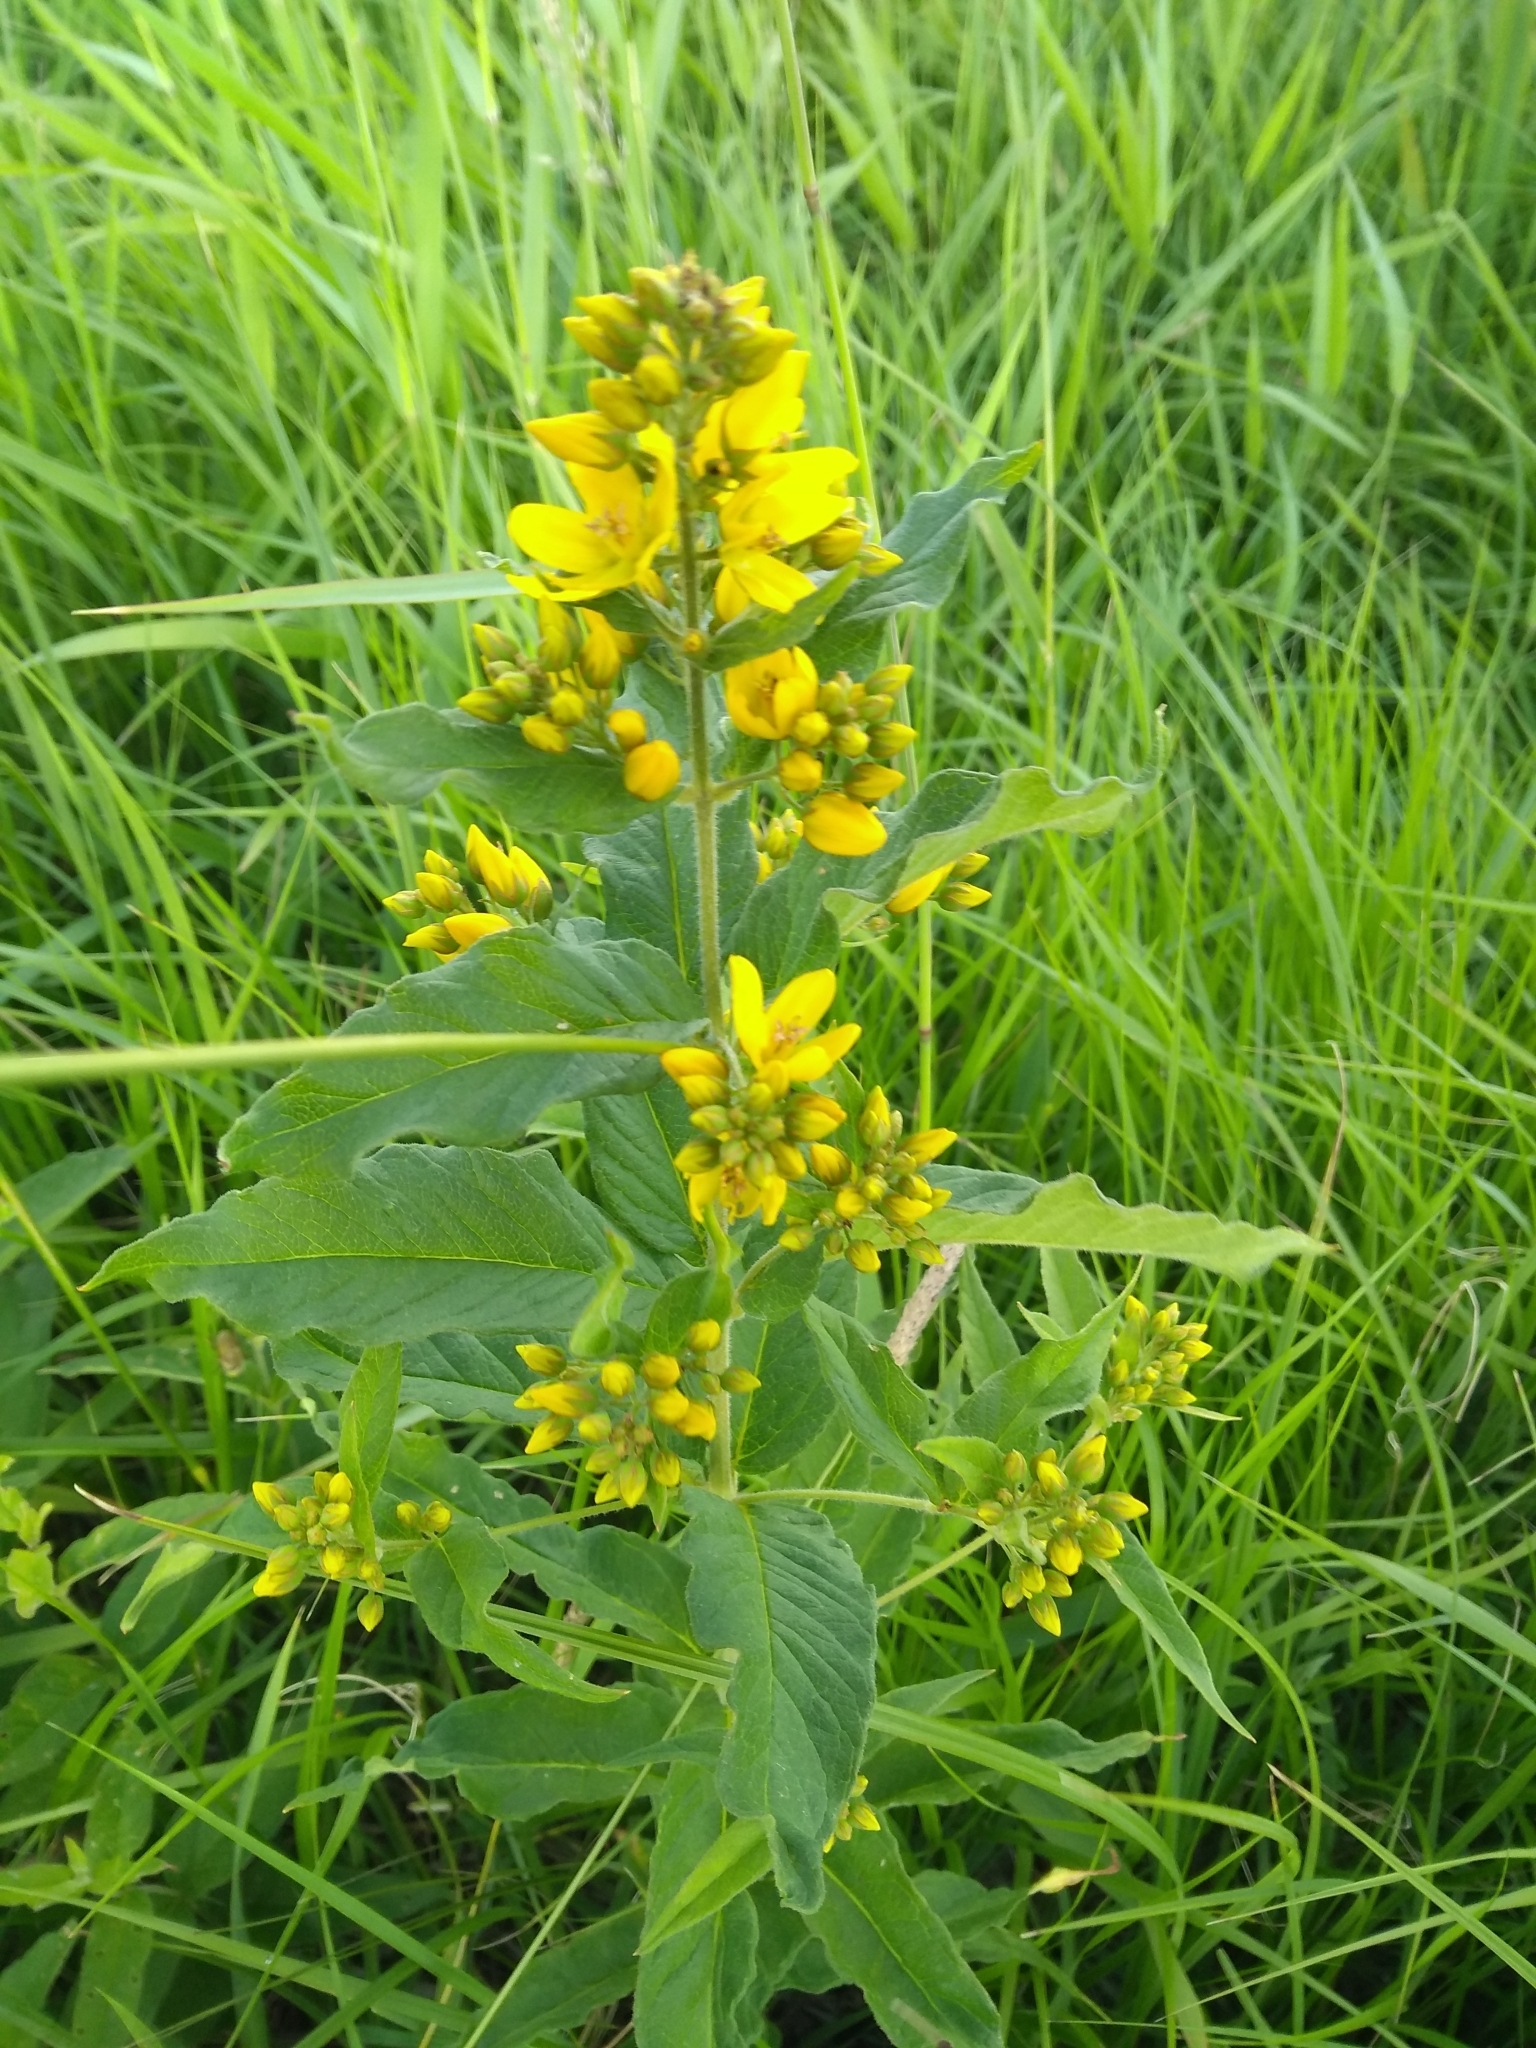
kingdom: Plantae
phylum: Tracheophyta
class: Magnoliopsida
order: Ericales
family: Primulaceae
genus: Lysimachia
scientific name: Lysimachia vulgaris
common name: Yellow loosestrife
